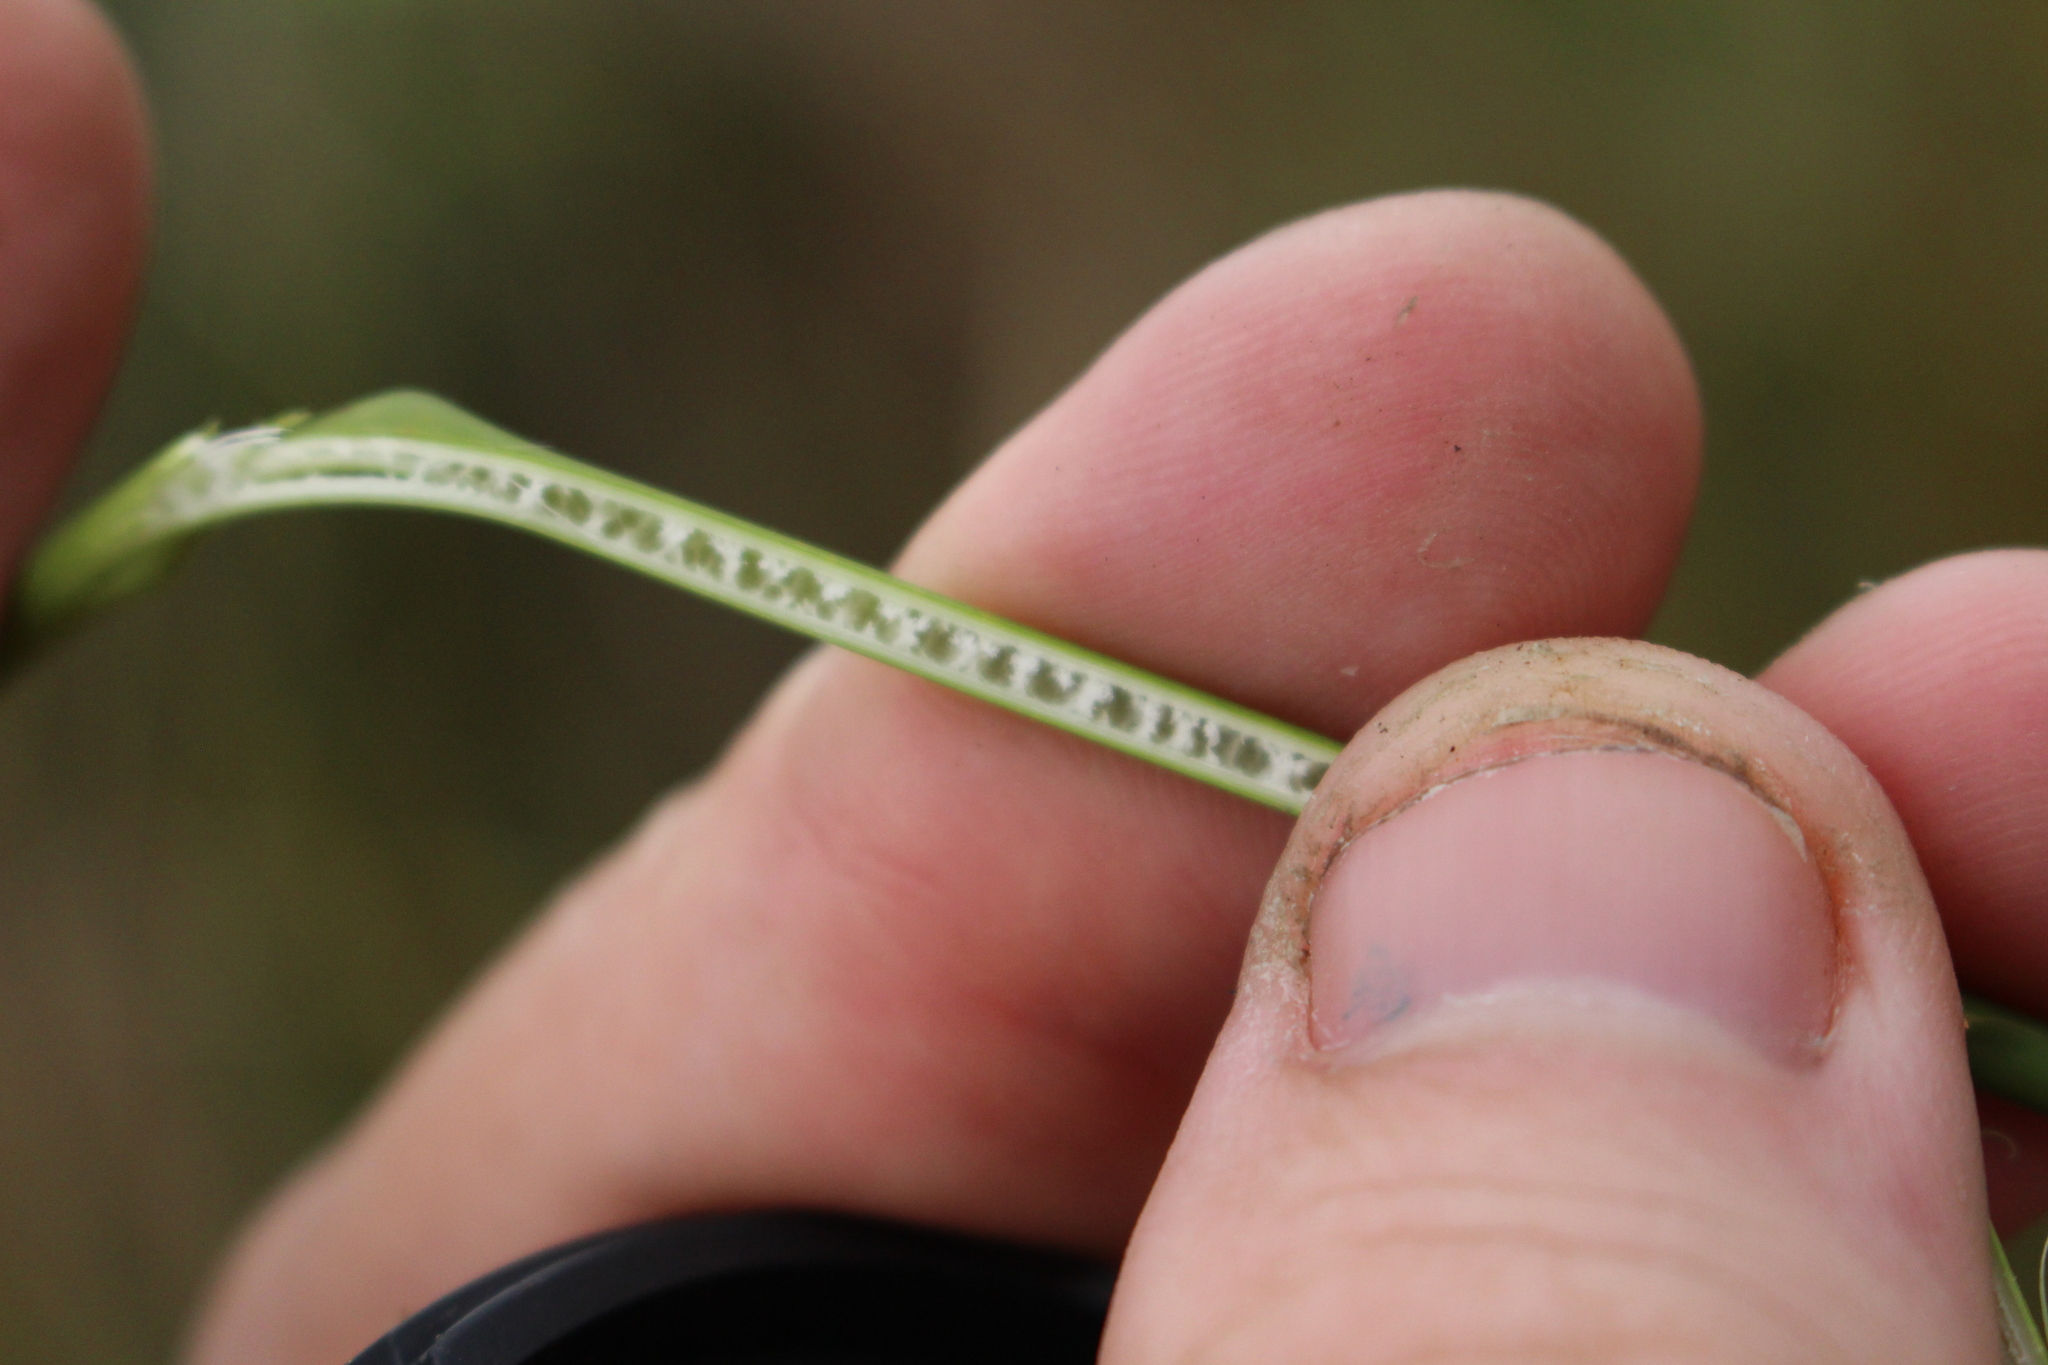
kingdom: Plantae
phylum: Tracheophyta
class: Liliopsida
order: Poales
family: Juncaceae
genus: Juncus
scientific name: Juncus edgariae
